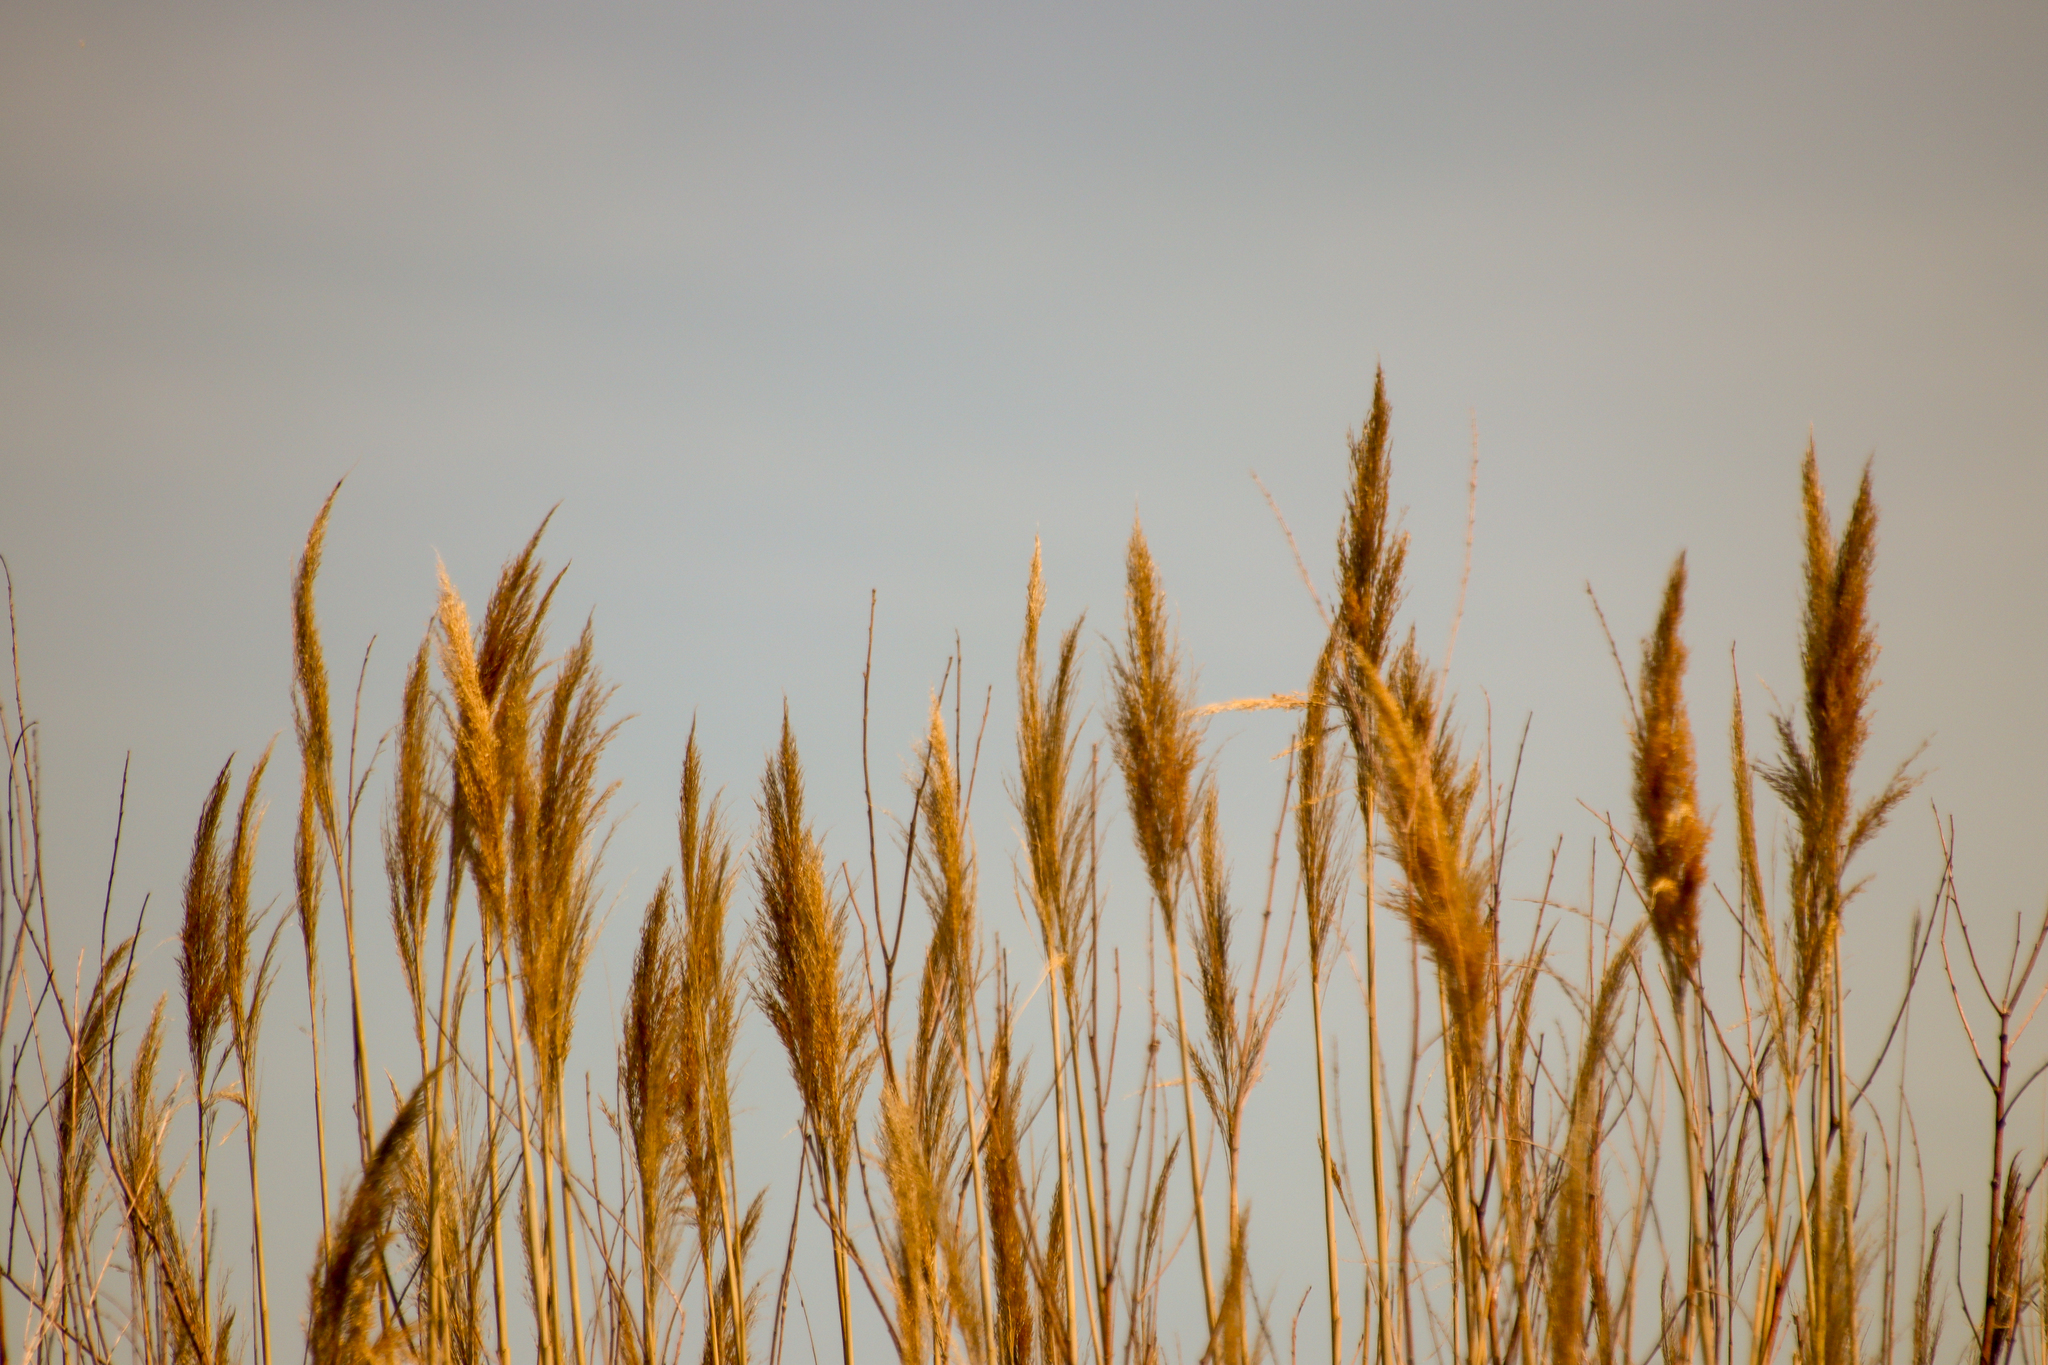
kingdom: Plantae
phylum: Tracheophyta
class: Liliopsida
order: Poales
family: Poaceae
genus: Phragmites
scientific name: Phragmites australis
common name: Common reed
